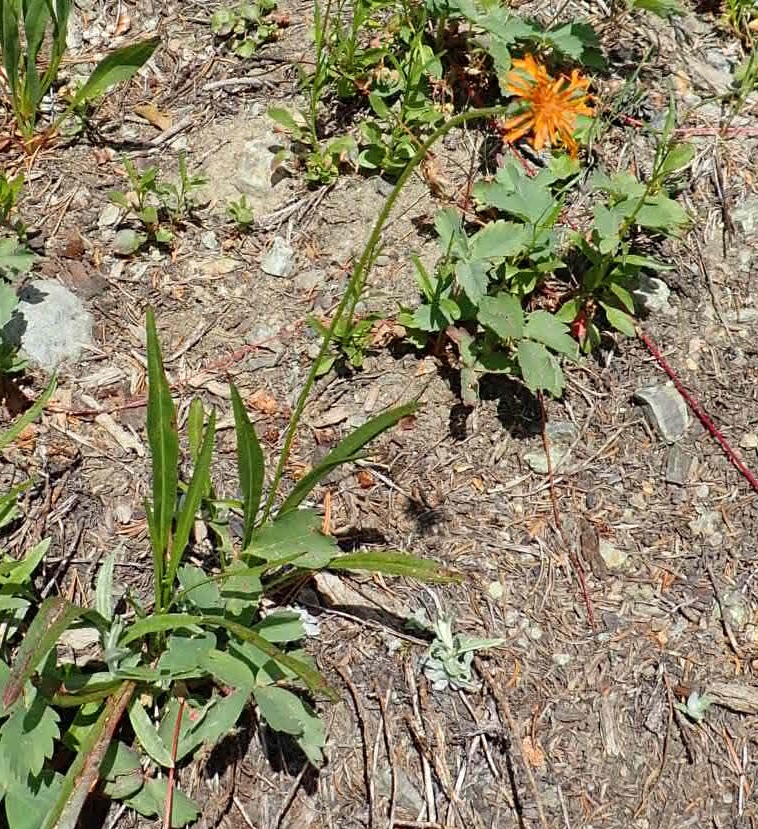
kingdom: Plantae
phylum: Tracheophyta
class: Magnoliopsida
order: Asterales
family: Asteraceae
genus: Agoseris
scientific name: Agoseris aurantiaca
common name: Mountain agoseris
